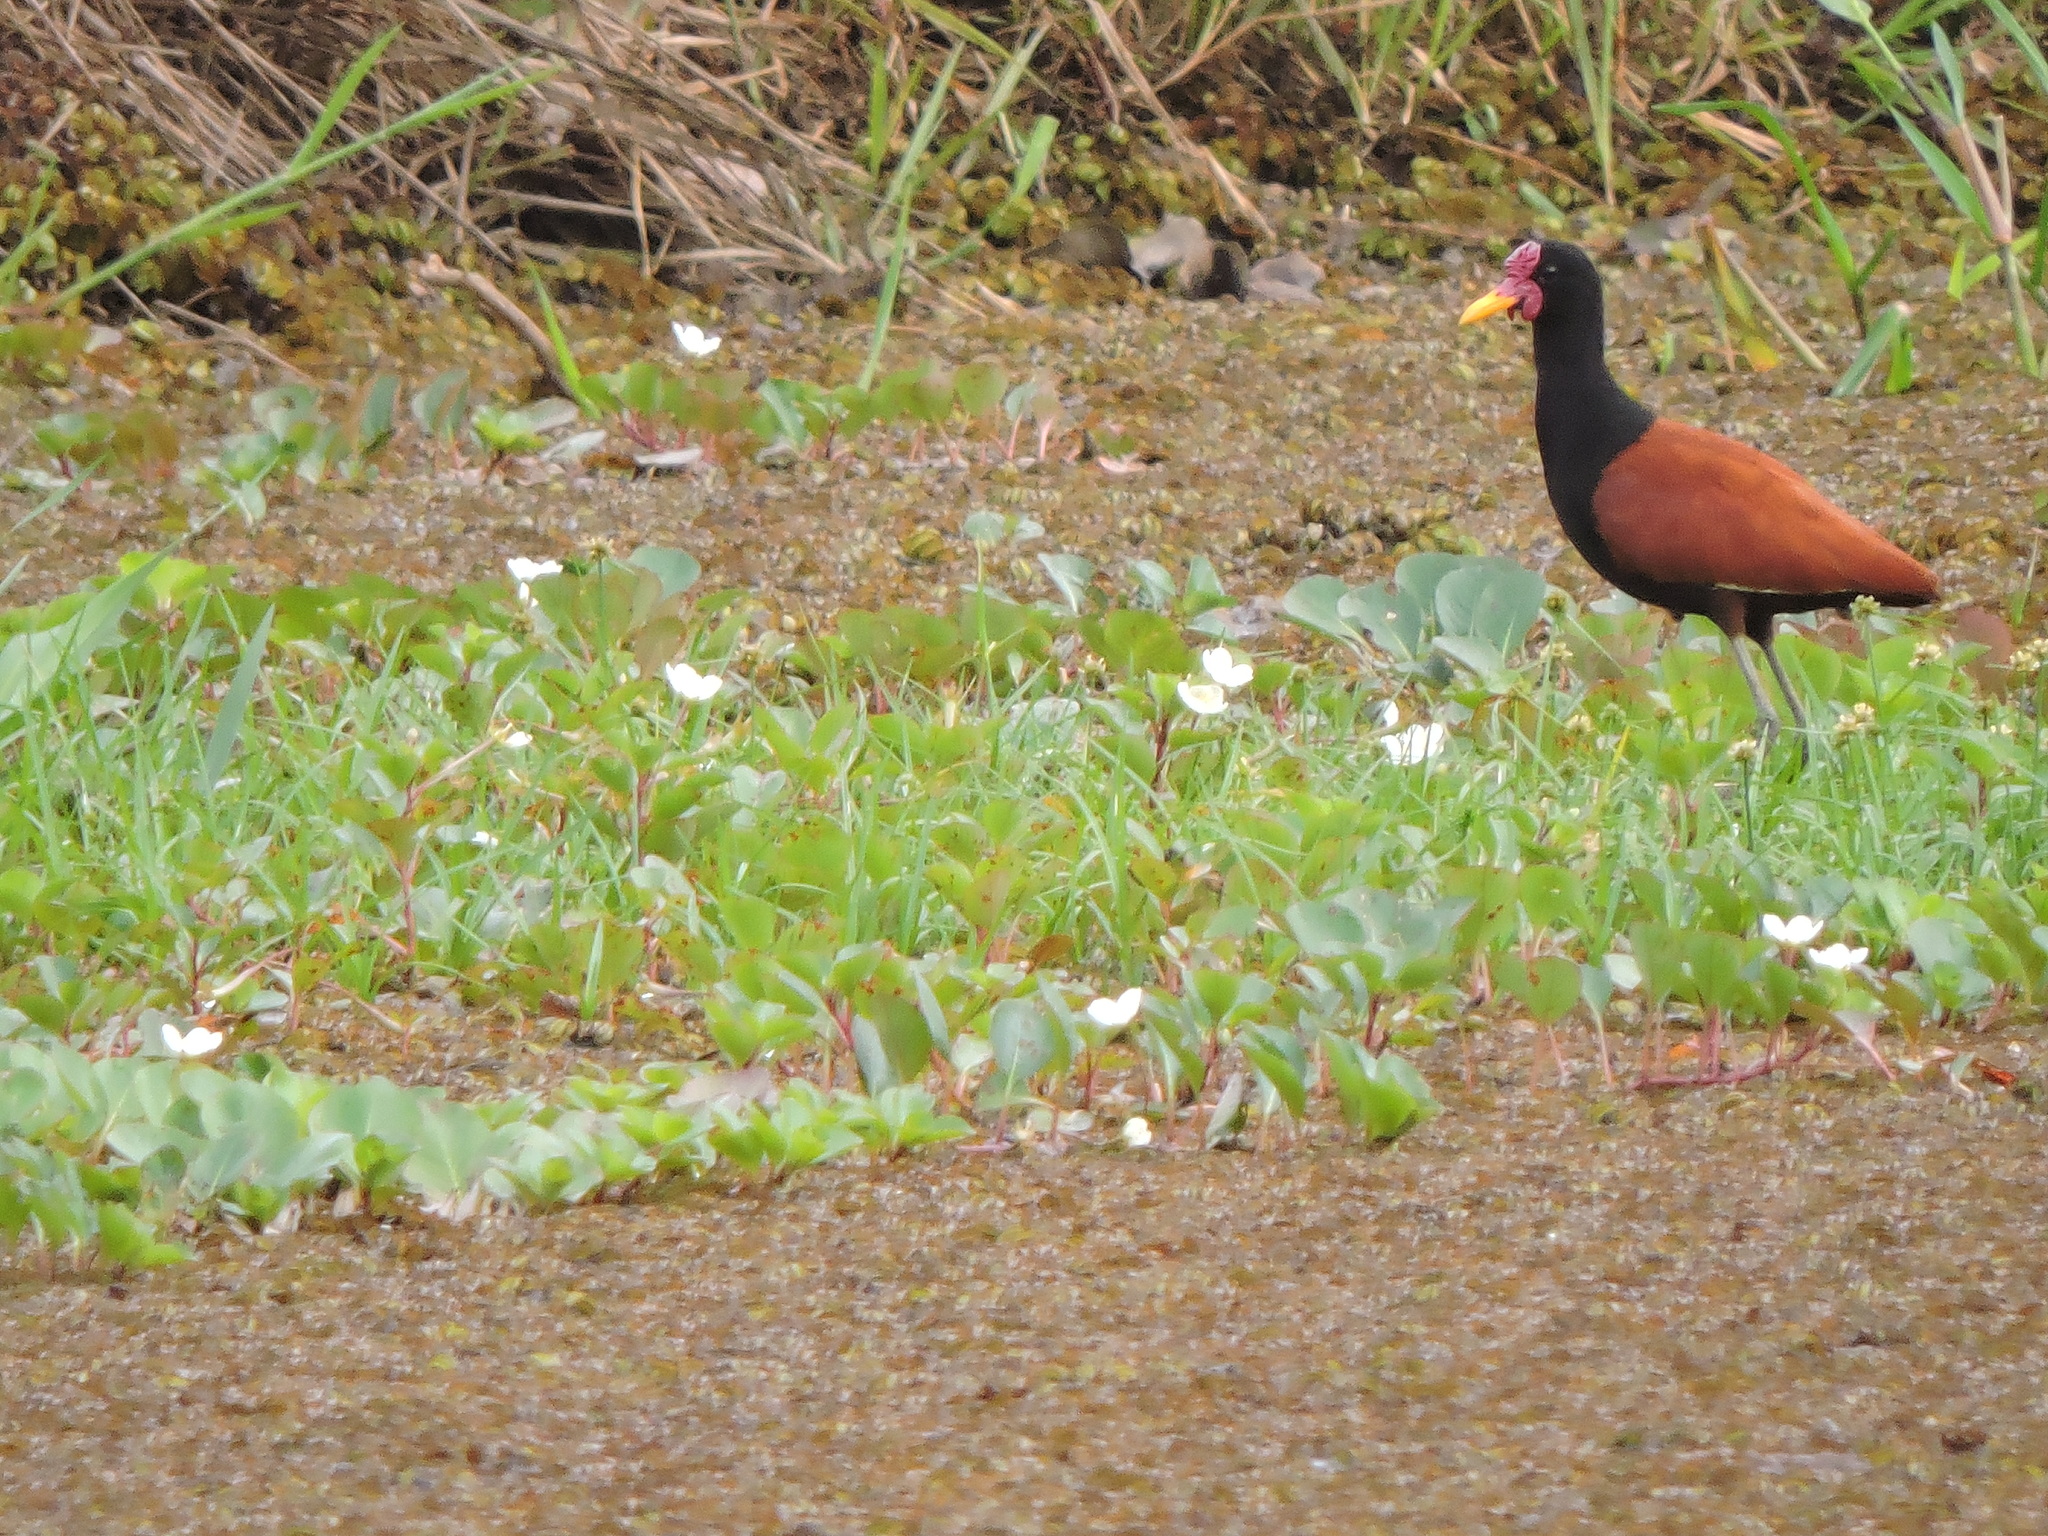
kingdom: Animalia
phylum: Chordata
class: Aves
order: Charadriiformes
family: Jacanidae
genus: Jacana
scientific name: Jacana jacana
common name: Wattled jacana
